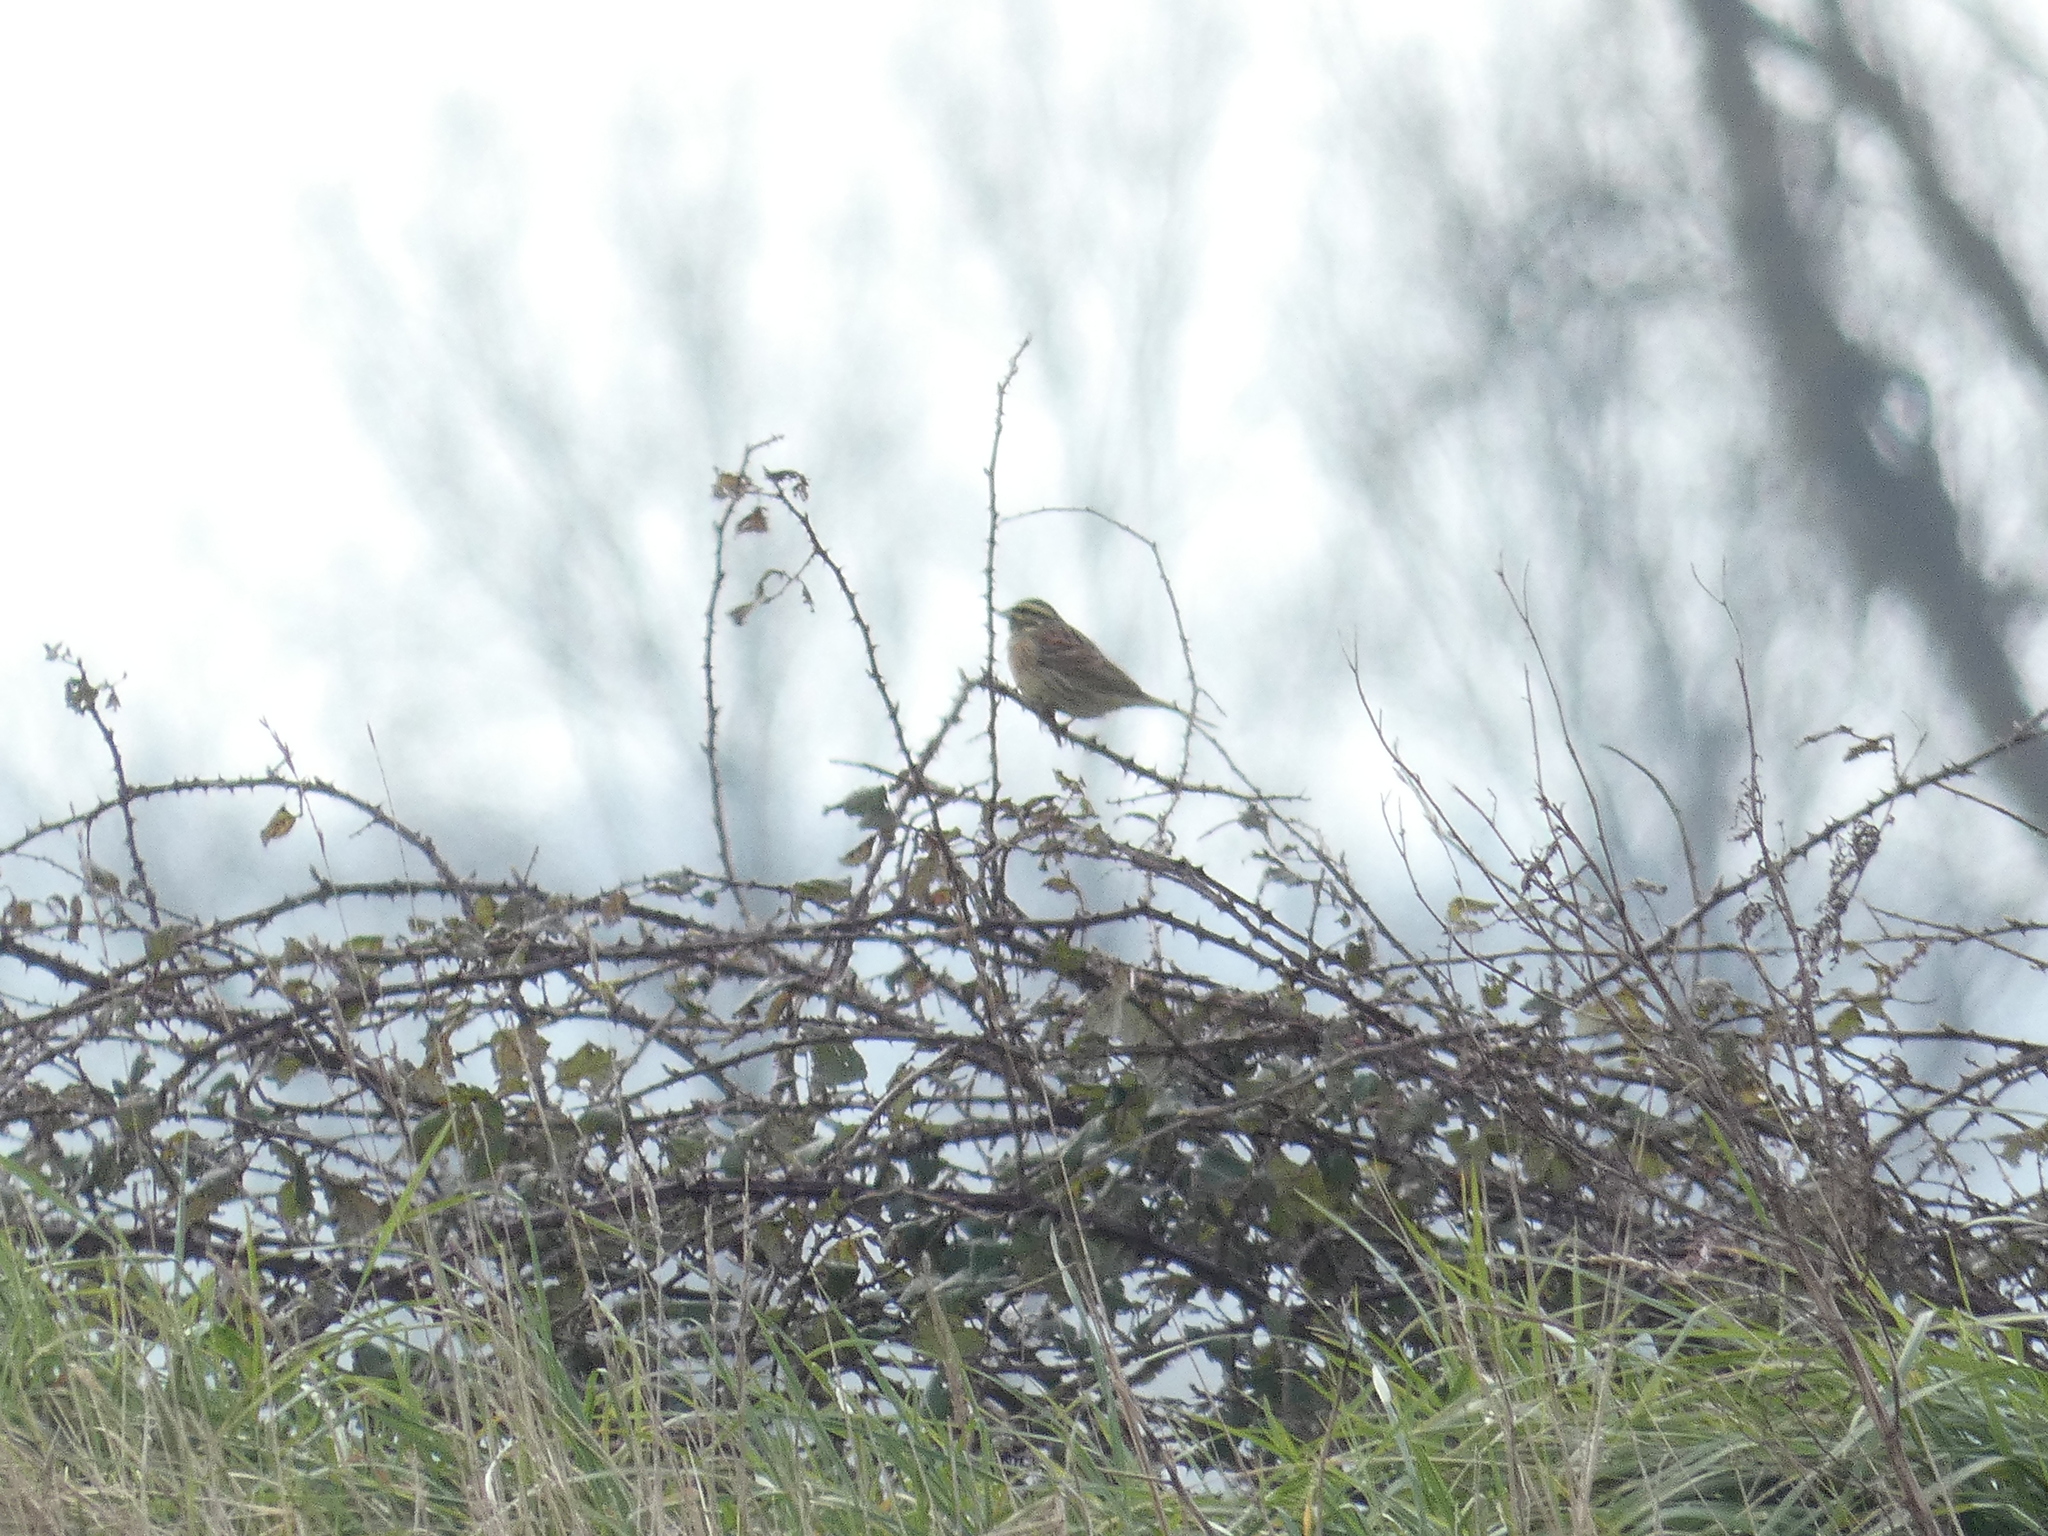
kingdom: Animalia
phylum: Chordata
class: Aves
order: Passeriformes
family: Emberizidae
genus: Emberiza
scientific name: Emberiza cirlus
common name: Cirl bunting
